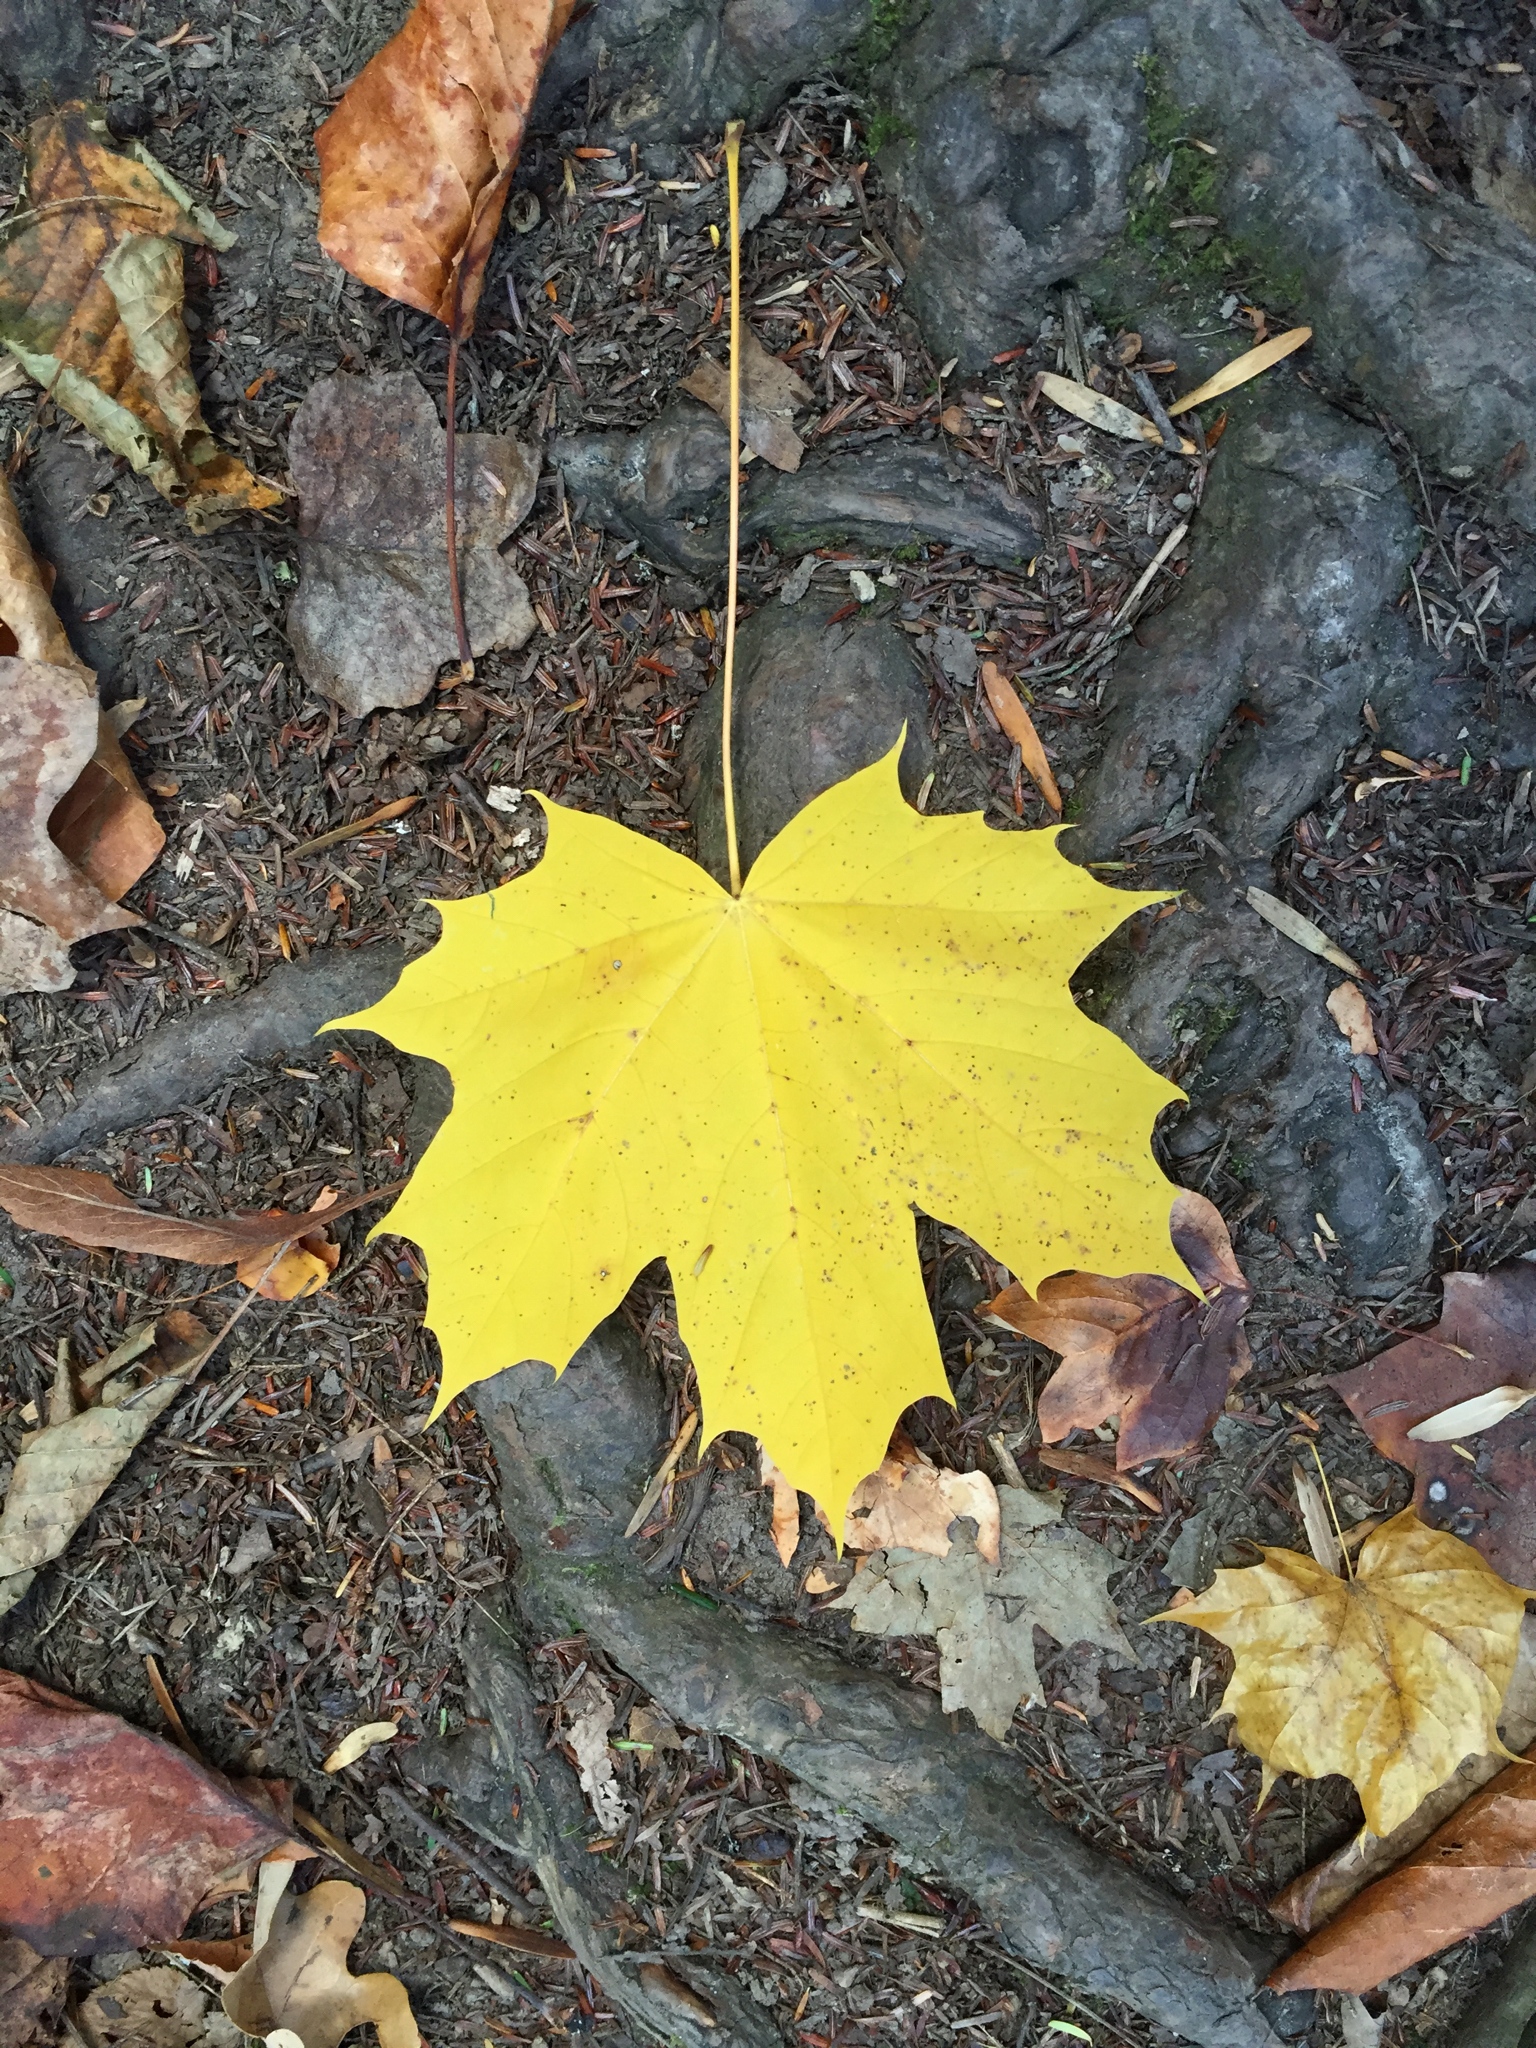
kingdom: Plantae
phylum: Tracheophyta
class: Magnoliopsida
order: Sapindales
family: Sapindaceae
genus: Acer
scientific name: Acer saccharum
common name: Sugar maple
